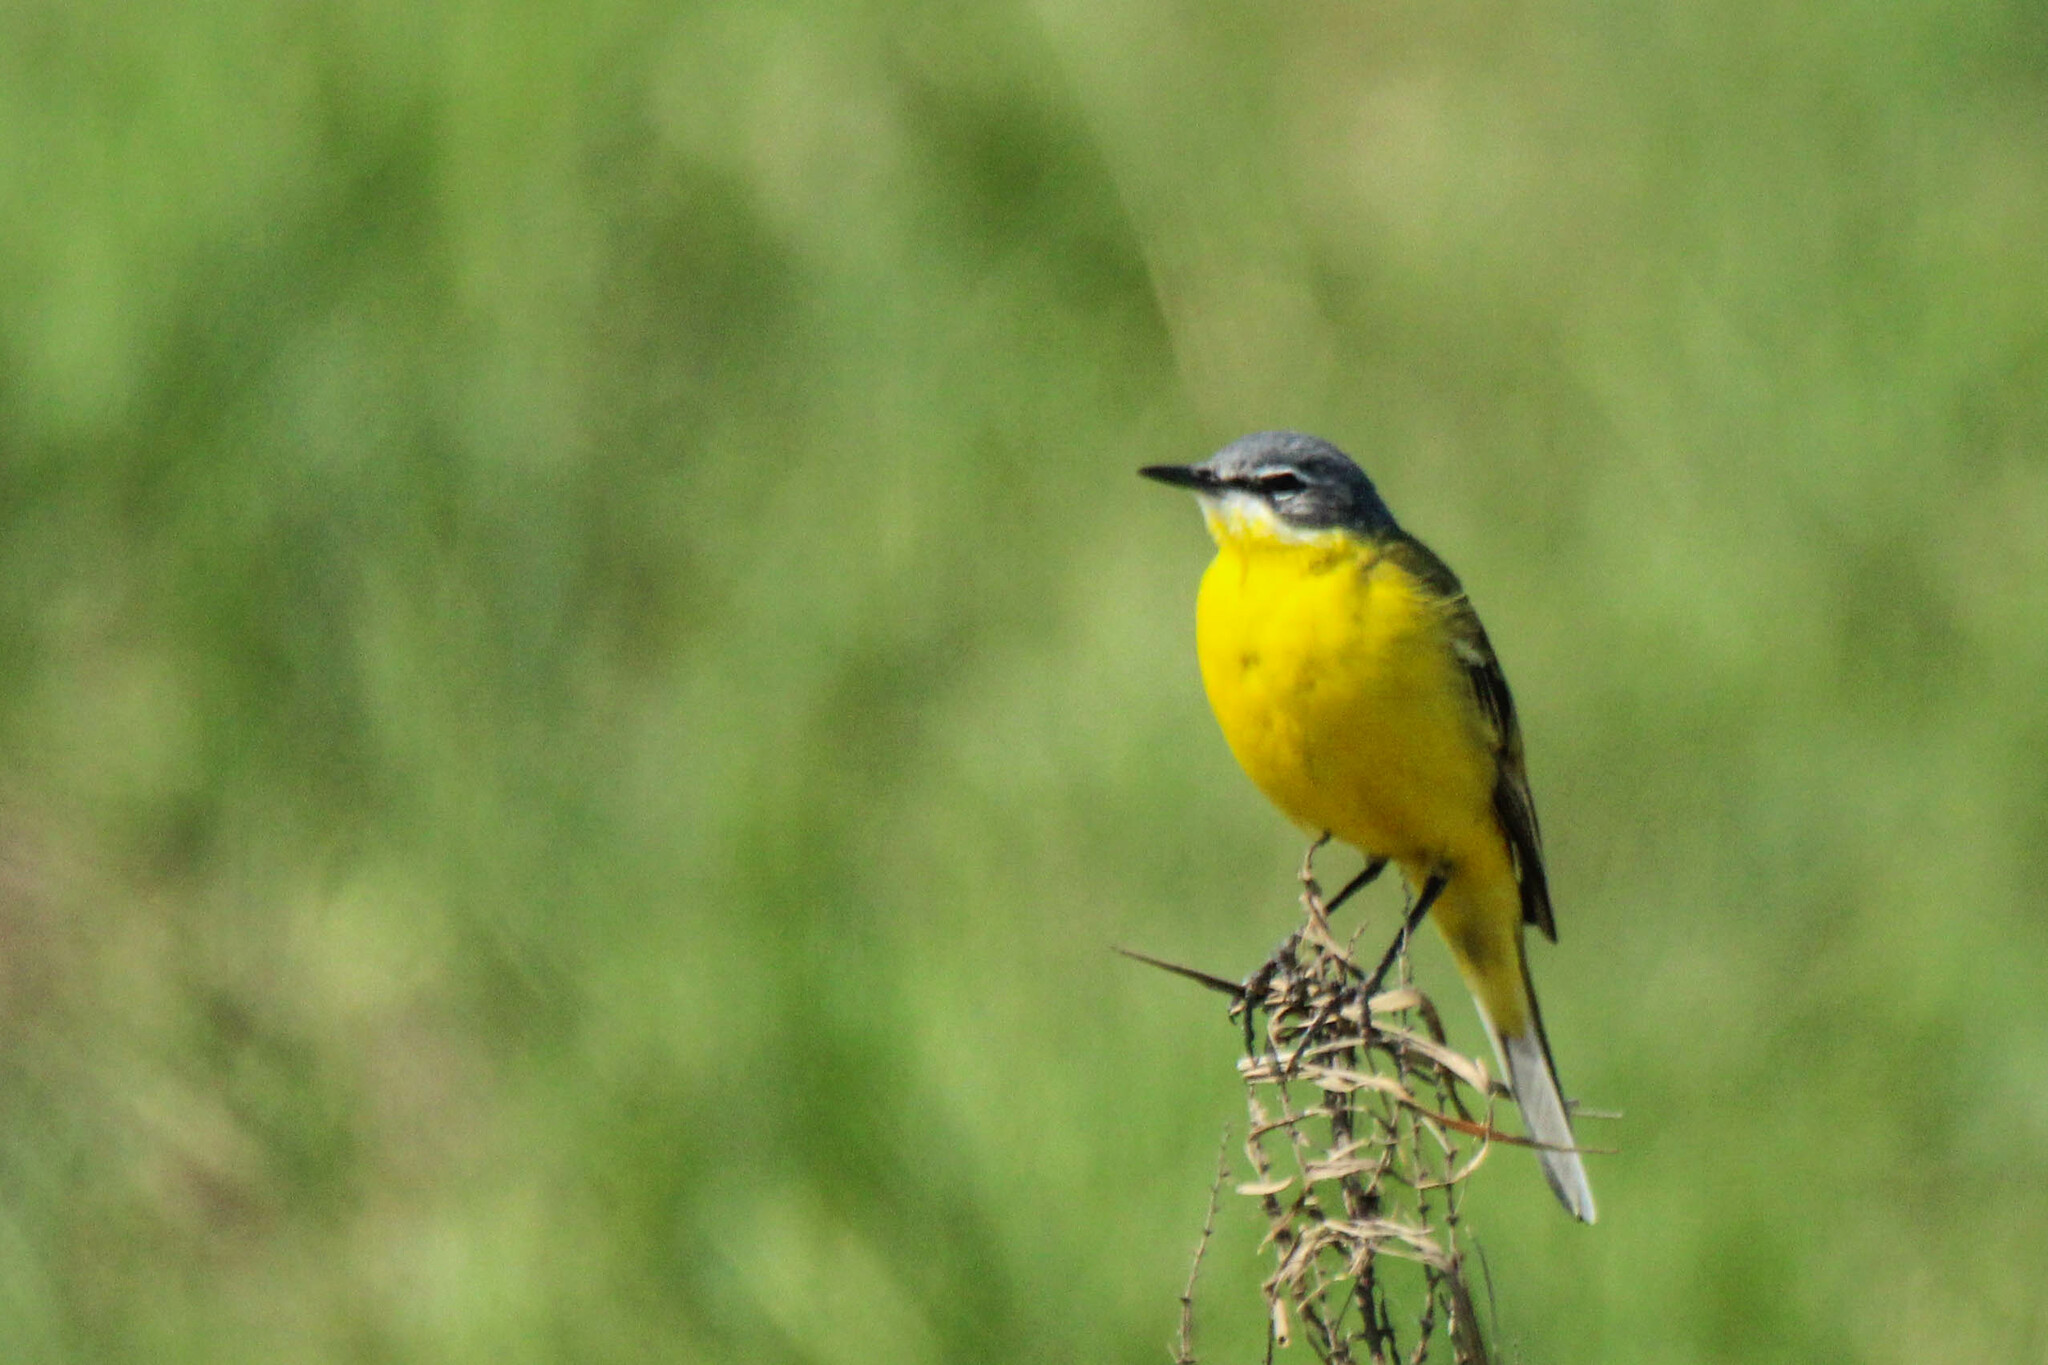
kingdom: Animalia
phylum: Chordata
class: Aves
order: Passeriformes
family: Motacillidae
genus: Motacilla
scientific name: Motacilla flava
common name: Western yellow wagtail
